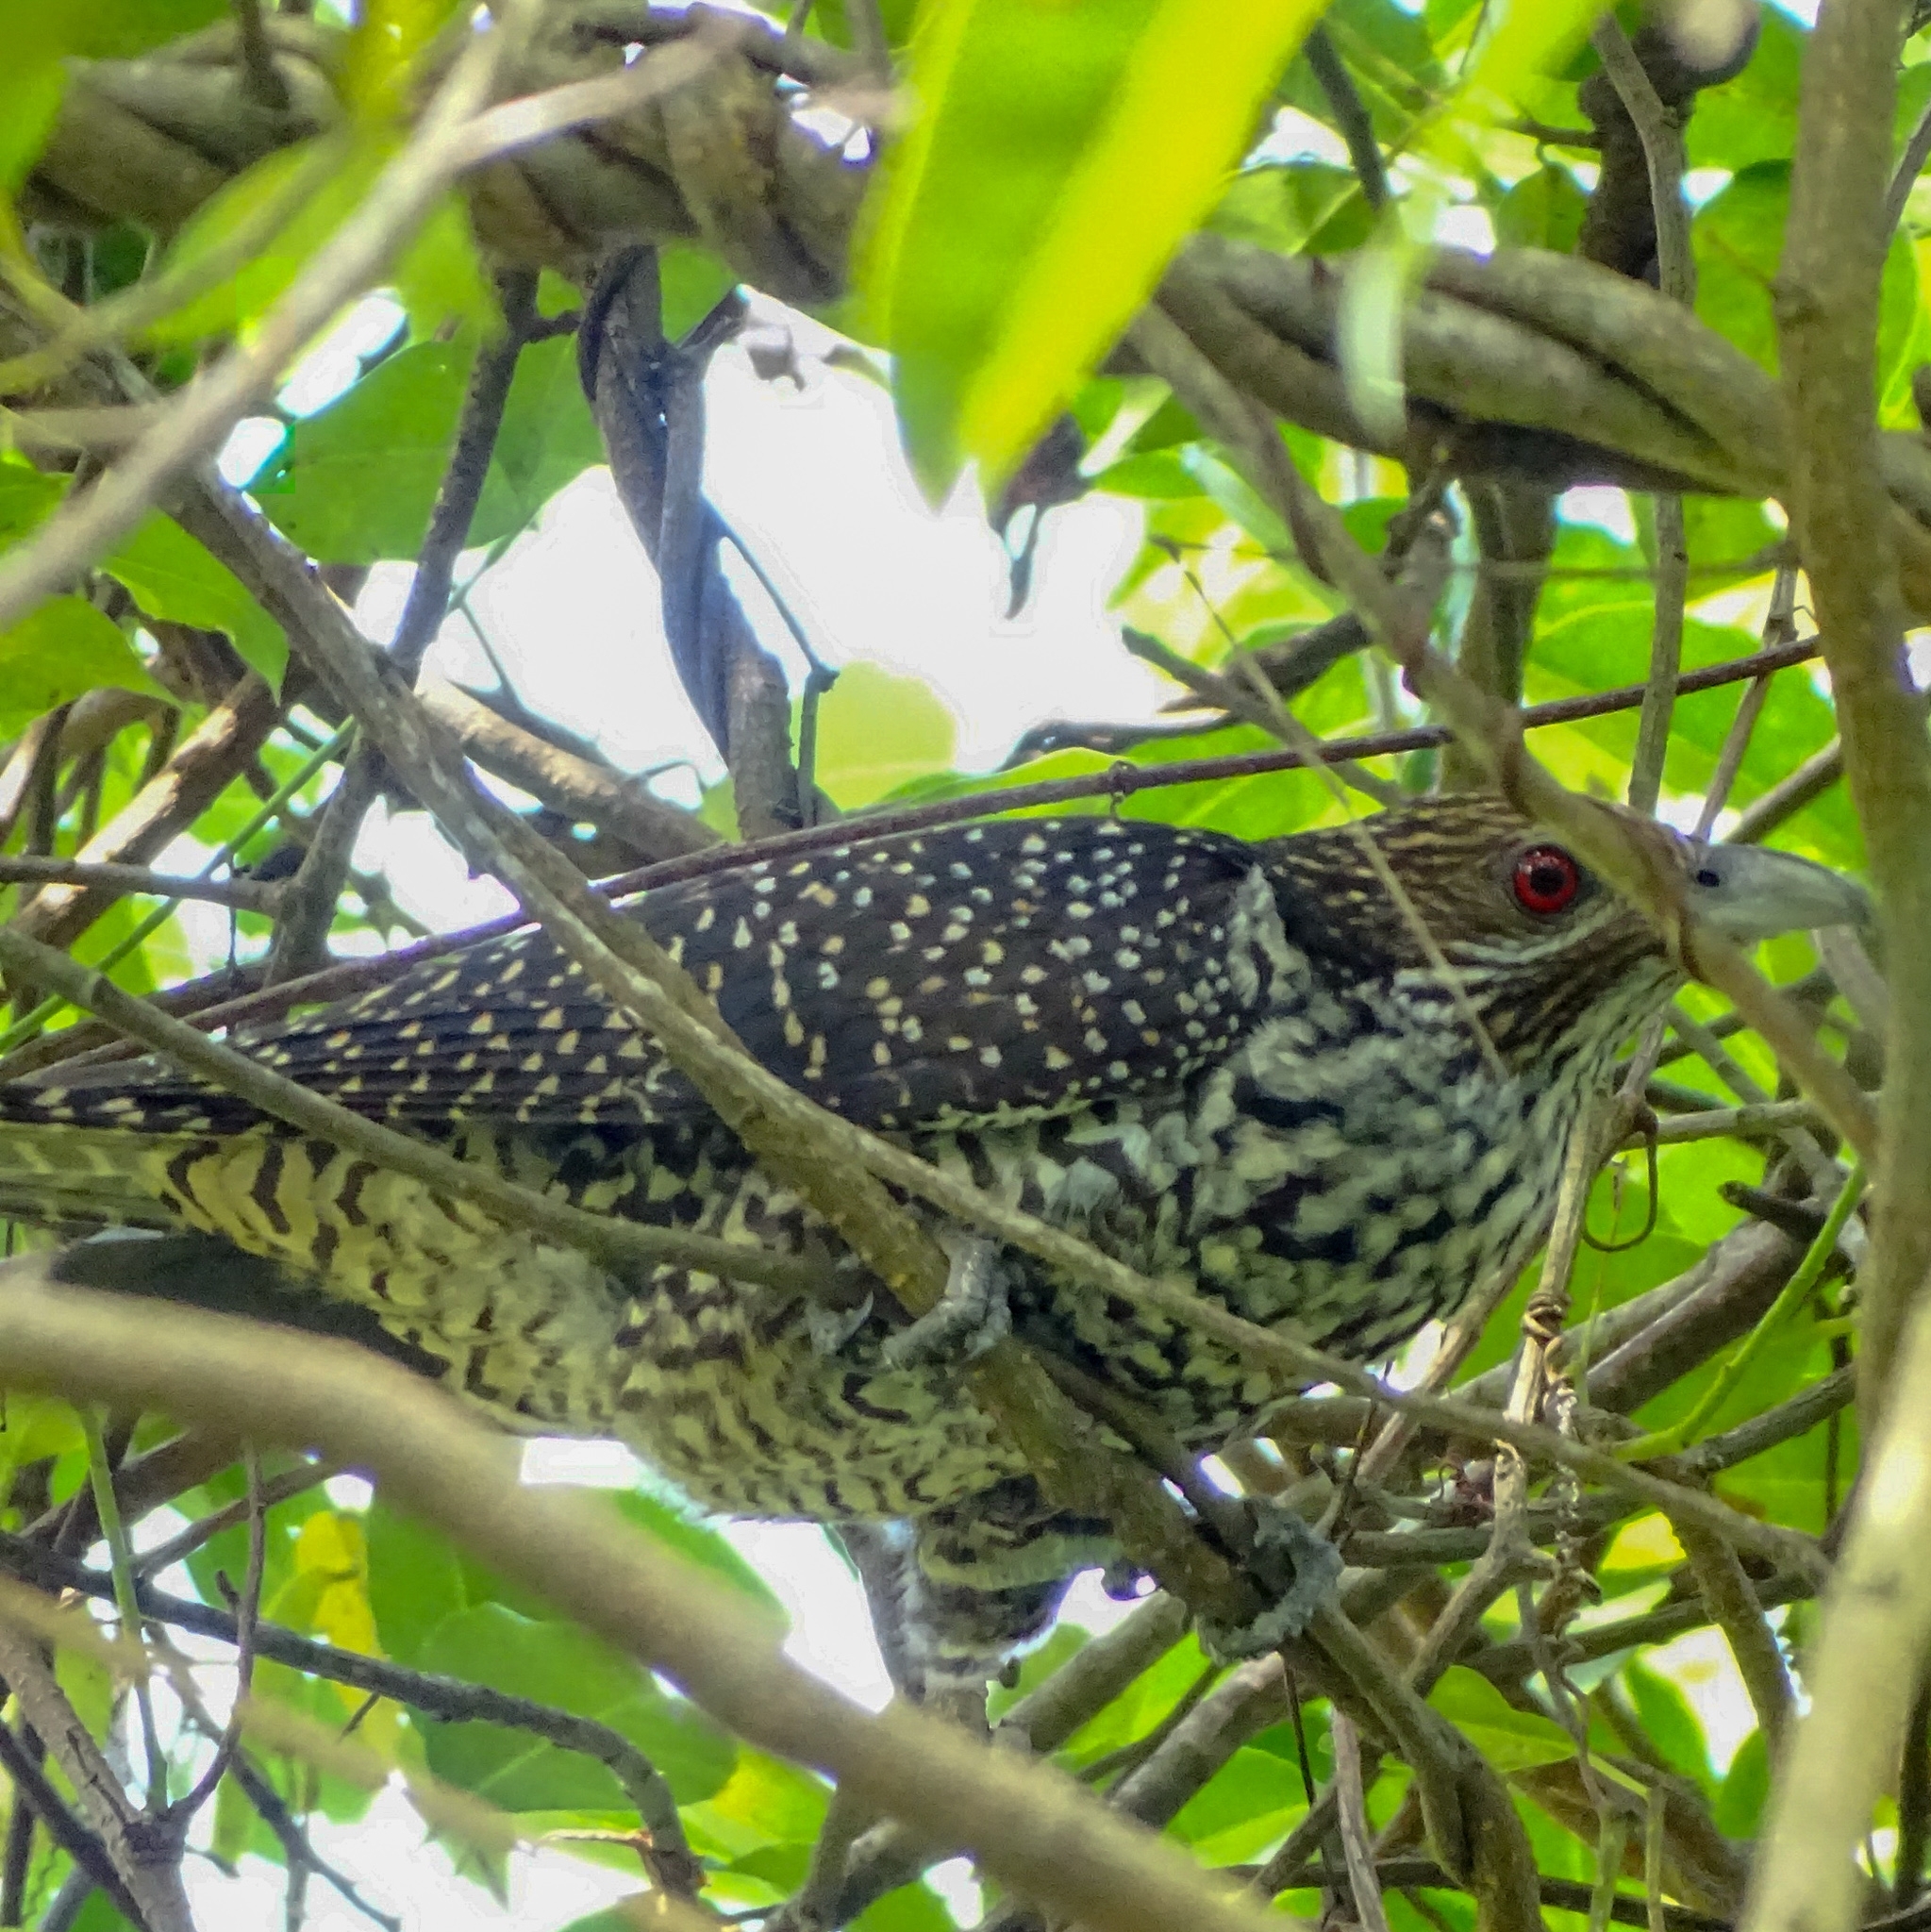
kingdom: Animalia
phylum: Chordata
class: Aves
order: Cuculiformes
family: Cuculidae
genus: Eudynamys
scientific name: Eudynamys scolopaceus
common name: Asian koel
